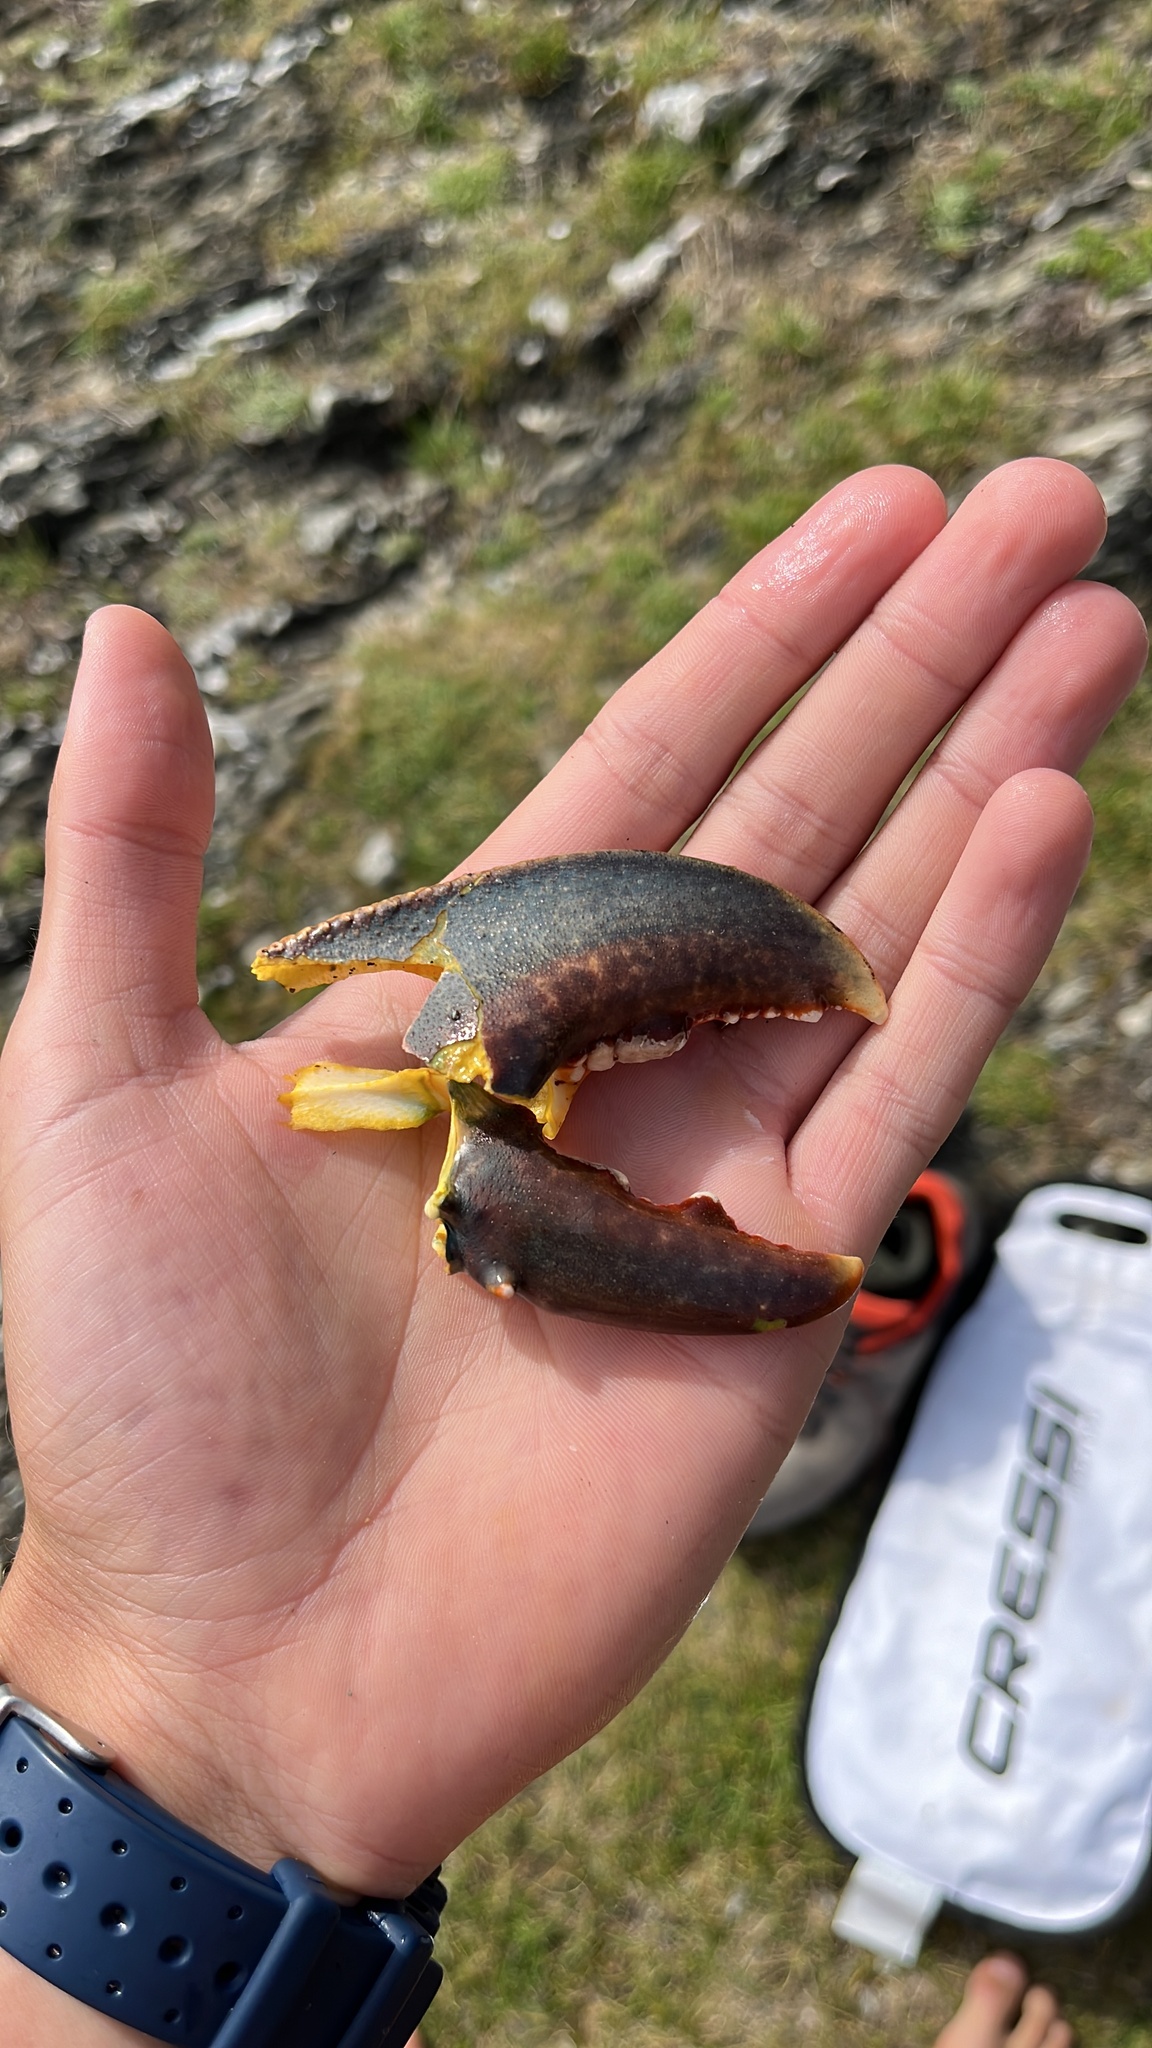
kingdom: Animalia
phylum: Arthropoda
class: Malacostraca
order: Decapoda
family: Nephropidae
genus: Homarus
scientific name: Homarus gammarus
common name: European lobster
